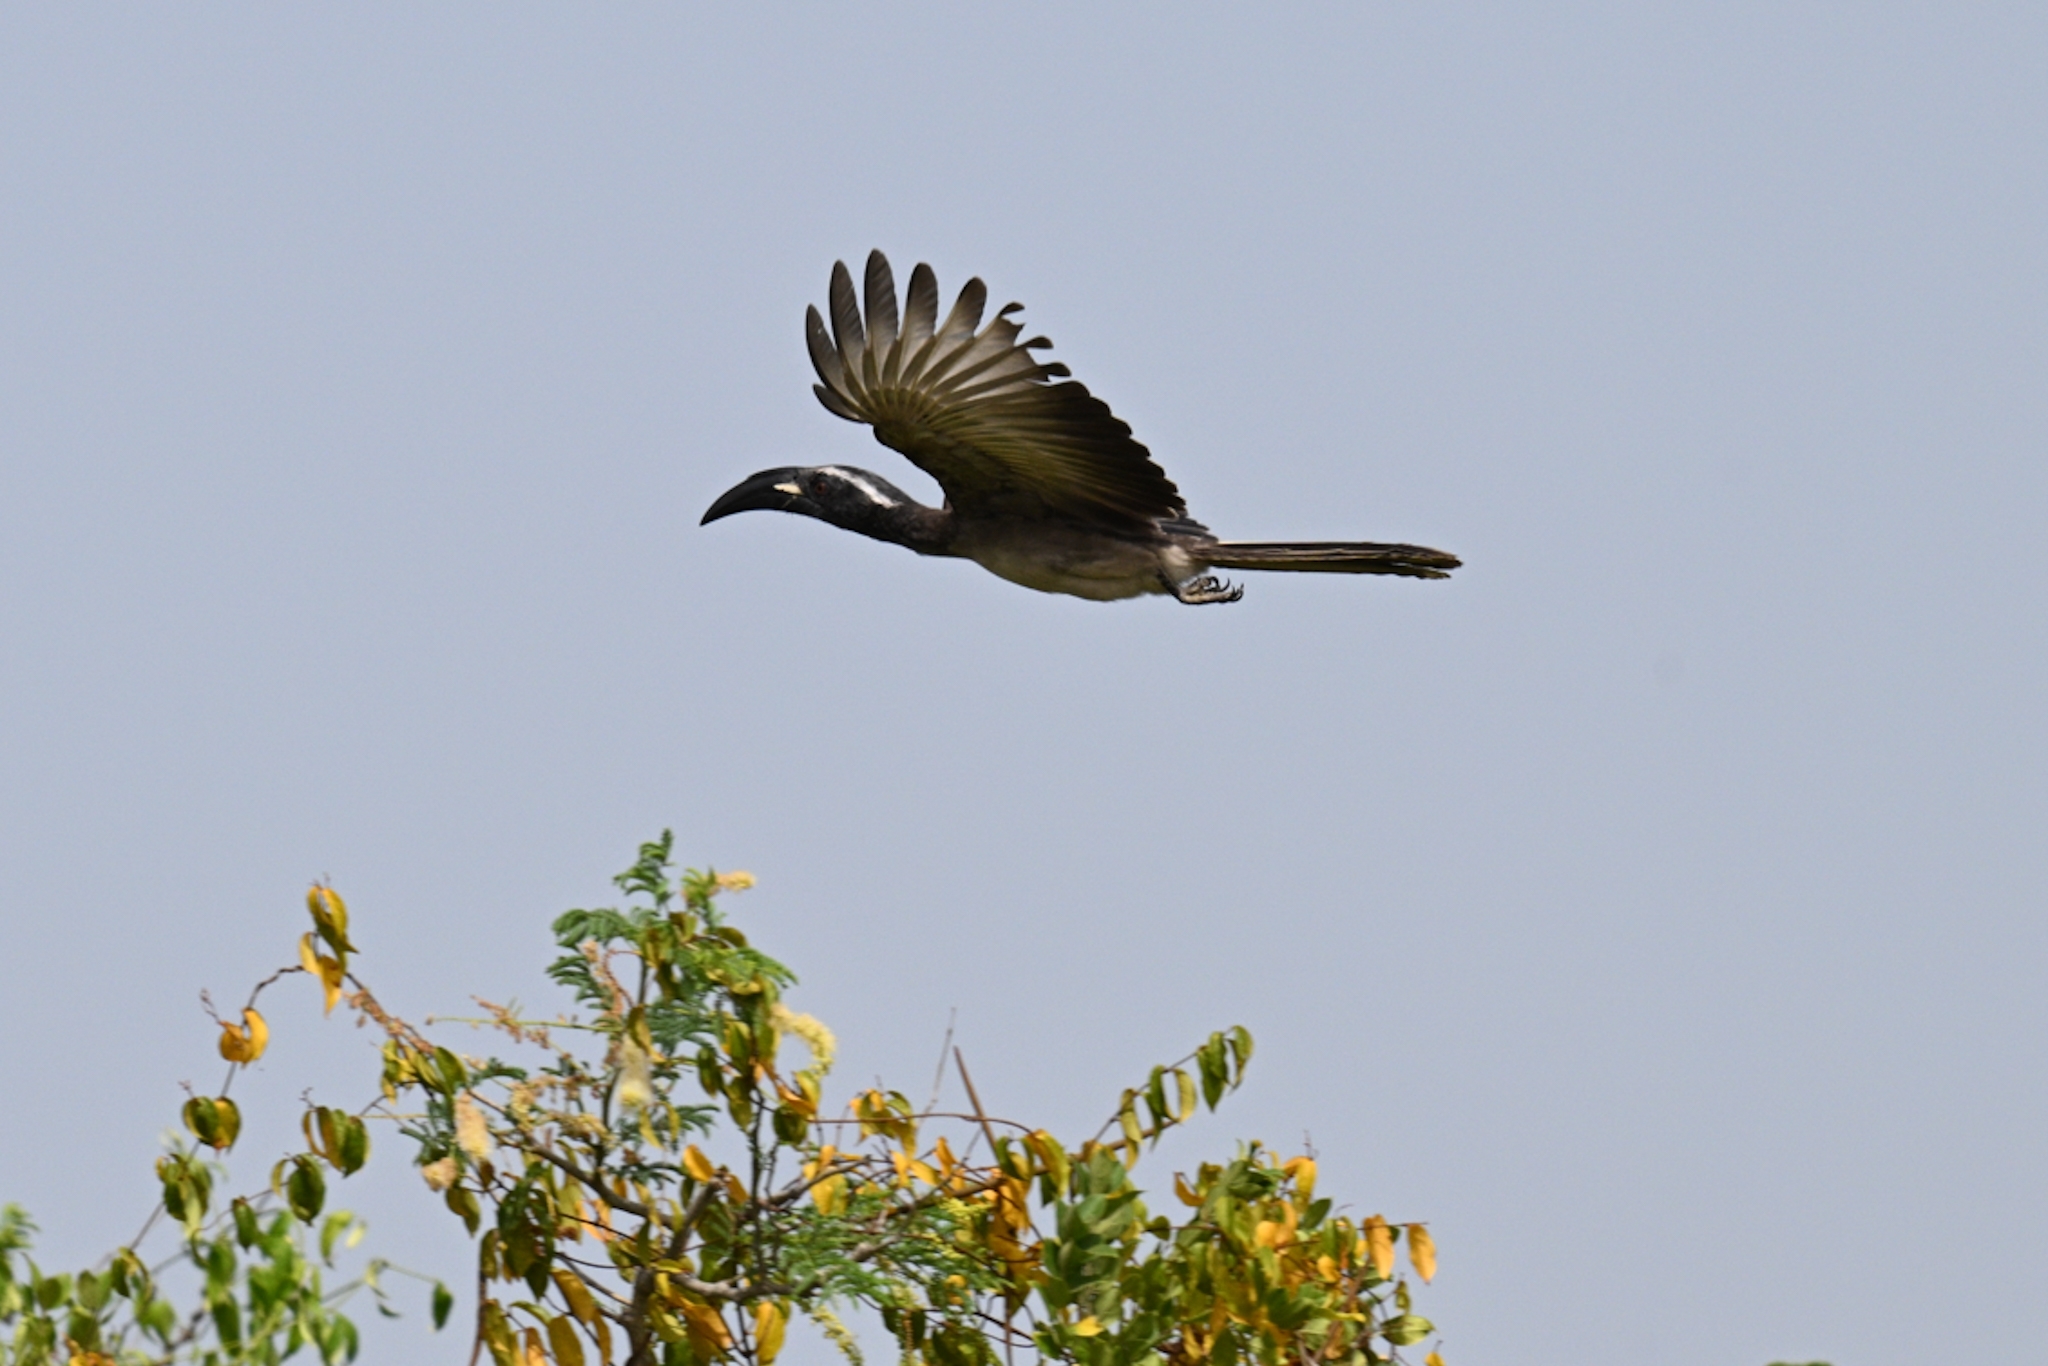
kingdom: Animalia
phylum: Chordata
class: Aves
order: Bucerotiformes
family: Bucerotidae
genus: Lophoceros
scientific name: Lophoceros nasutus
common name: African grey hornbill
